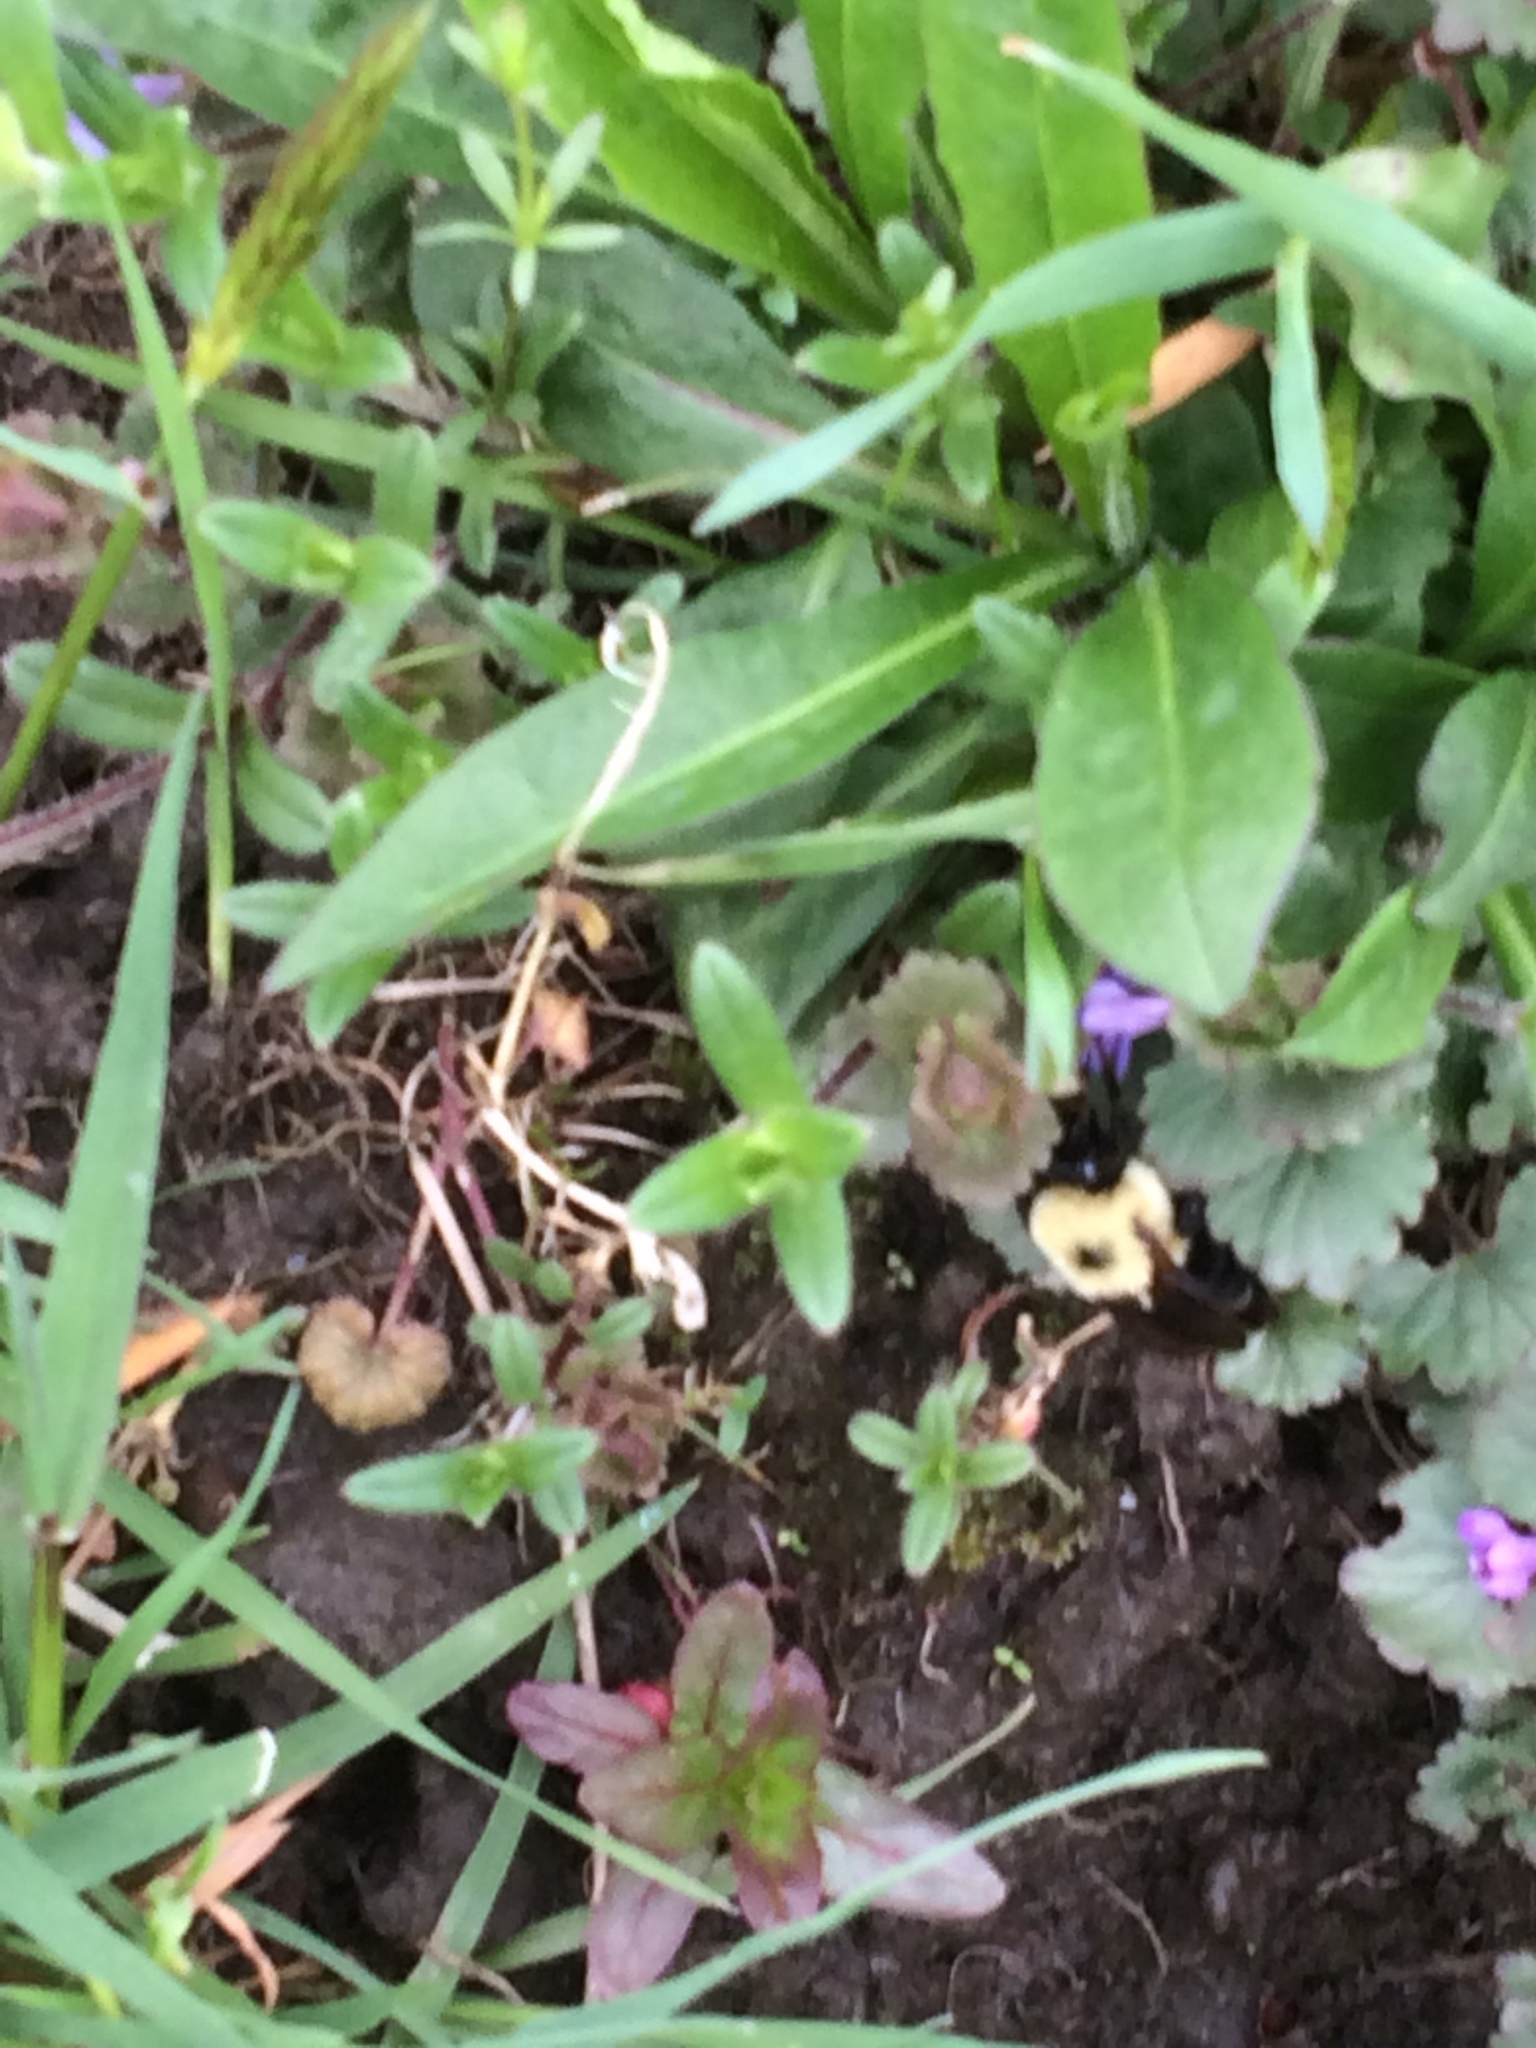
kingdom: Animalia
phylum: Arthropoda
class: Insecta
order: Hymenoptera
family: Apidae
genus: Bombus
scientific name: Bombus bimaculatus
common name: Two-spotted bumble bee
